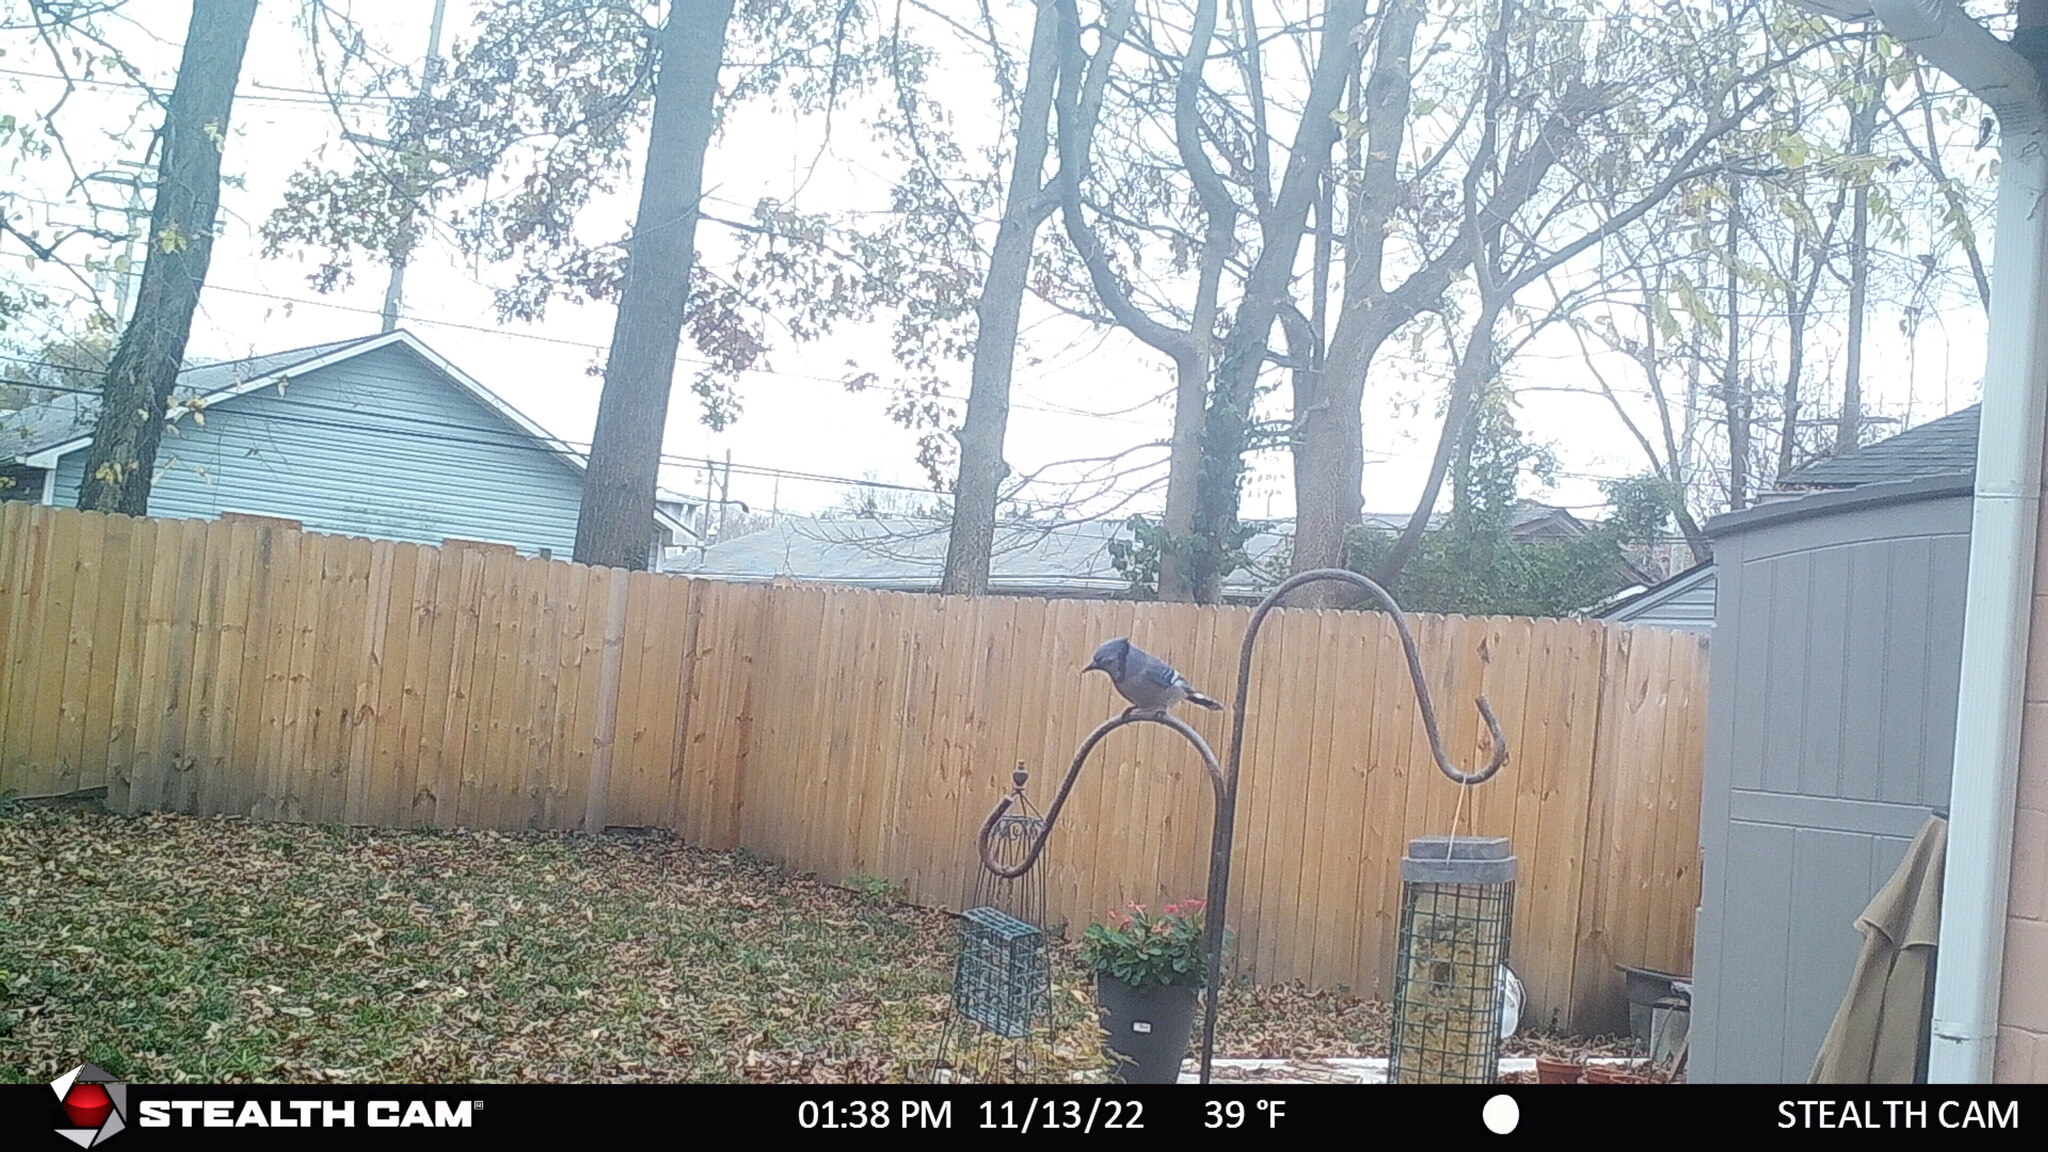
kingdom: Animalia
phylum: Chordata
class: Aves
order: Passeriformes
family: Corvidae
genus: Cyanocitta
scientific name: Cyanocitta cristata
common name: Blue jay
